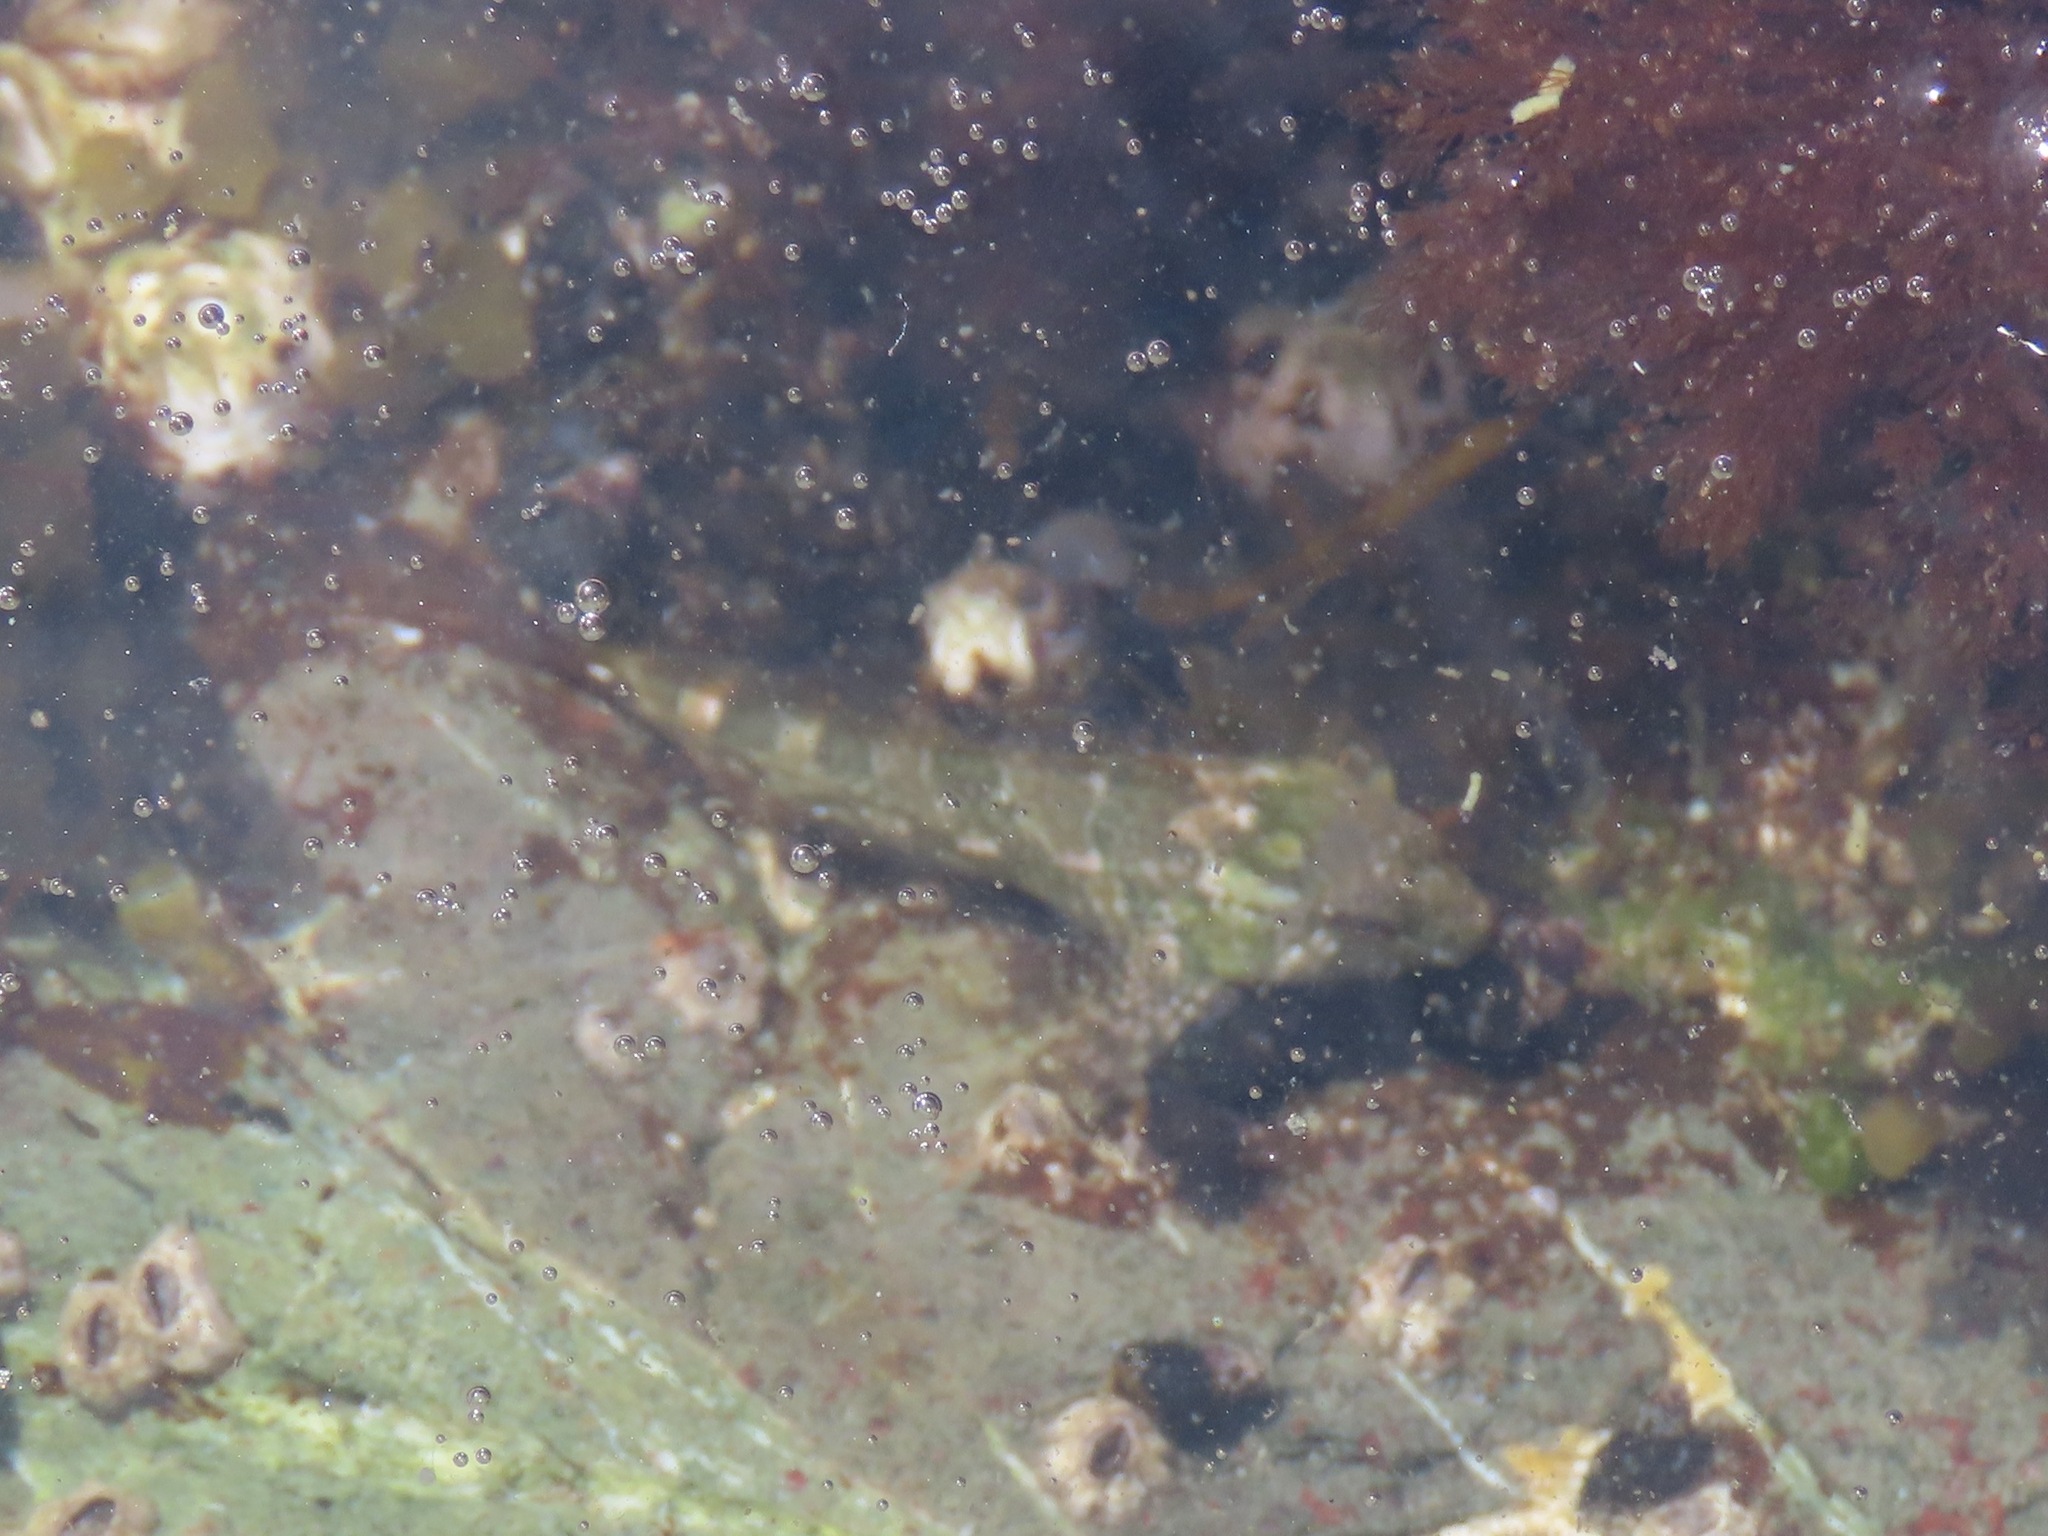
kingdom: Animalia
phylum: Chordata
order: Scorpaeniformes
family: Cottidae
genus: Oligocottus
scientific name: Oligocottus maculosus
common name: Tidepool sculpin
